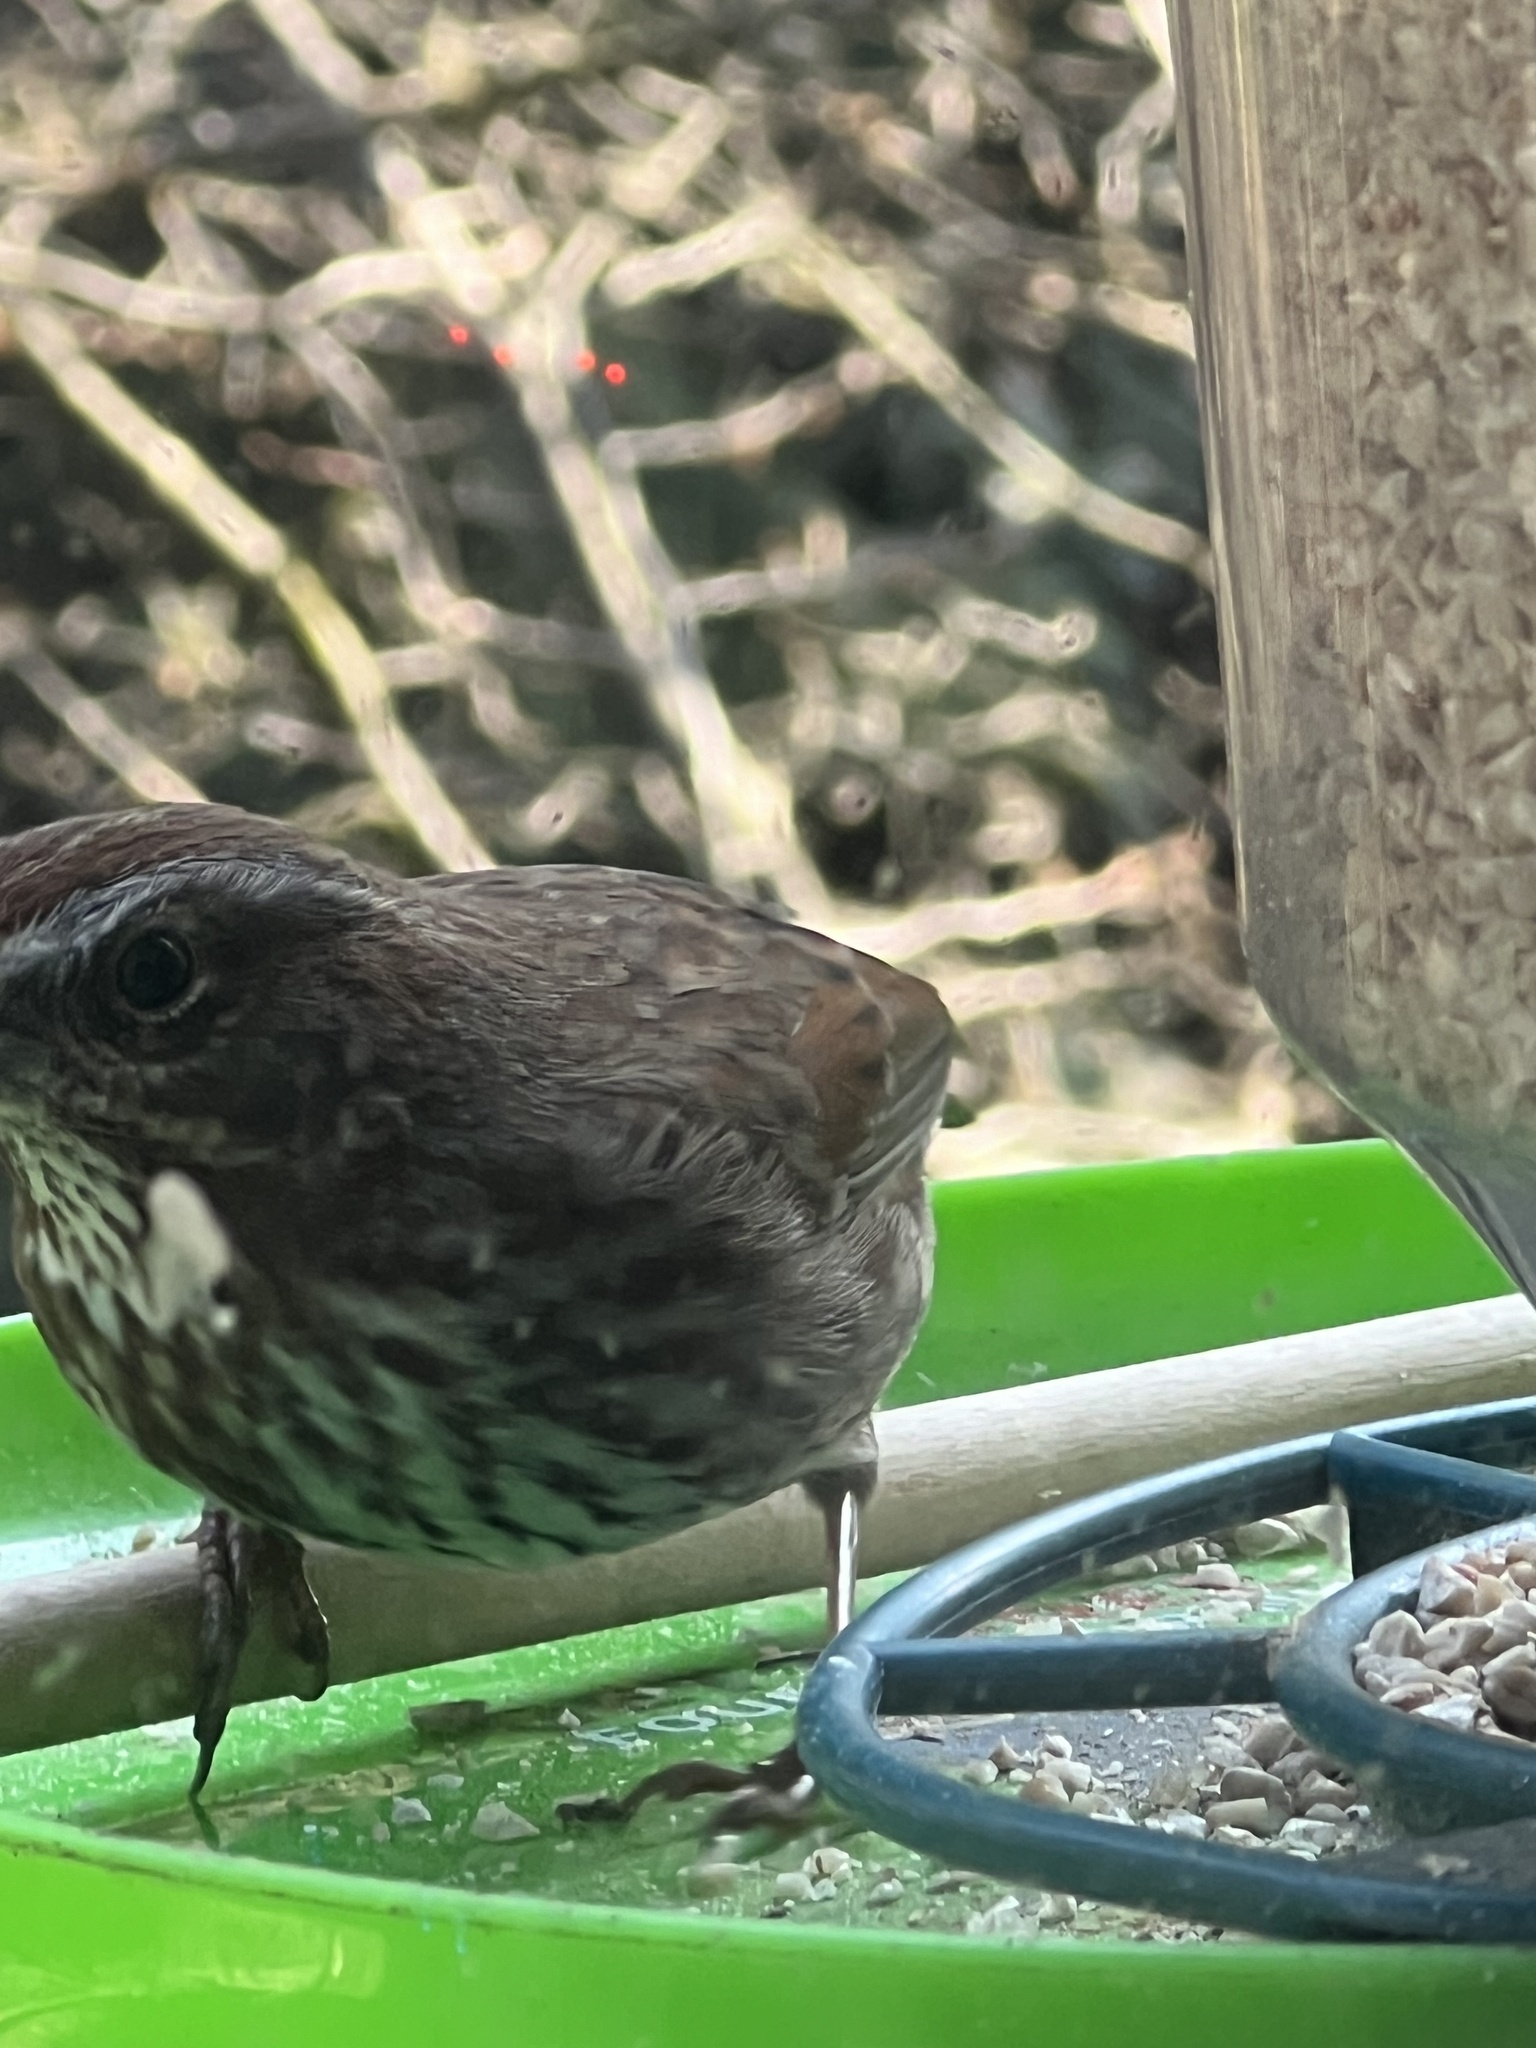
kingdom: Animalia
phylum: Chordata
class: Aves
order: Passeriformes
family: Passerellidae
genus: Melospiza
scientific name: Melospiza melodia
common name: Song sparrow
